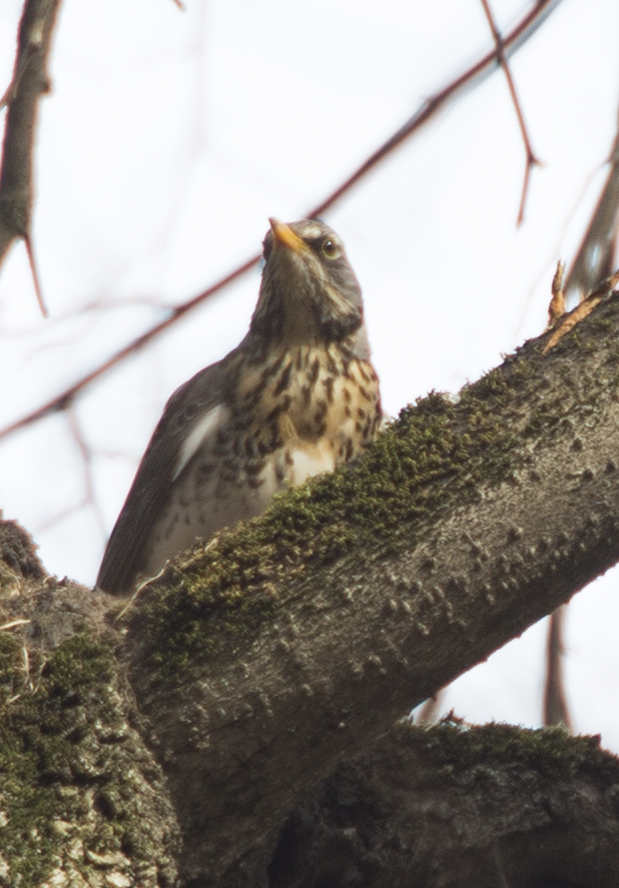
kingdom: Animalia
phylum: Chordata
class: Aves
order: Passeriformes
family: Turdidae
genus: Turdus
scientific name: Turdus pilaris
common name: Fieldfare
